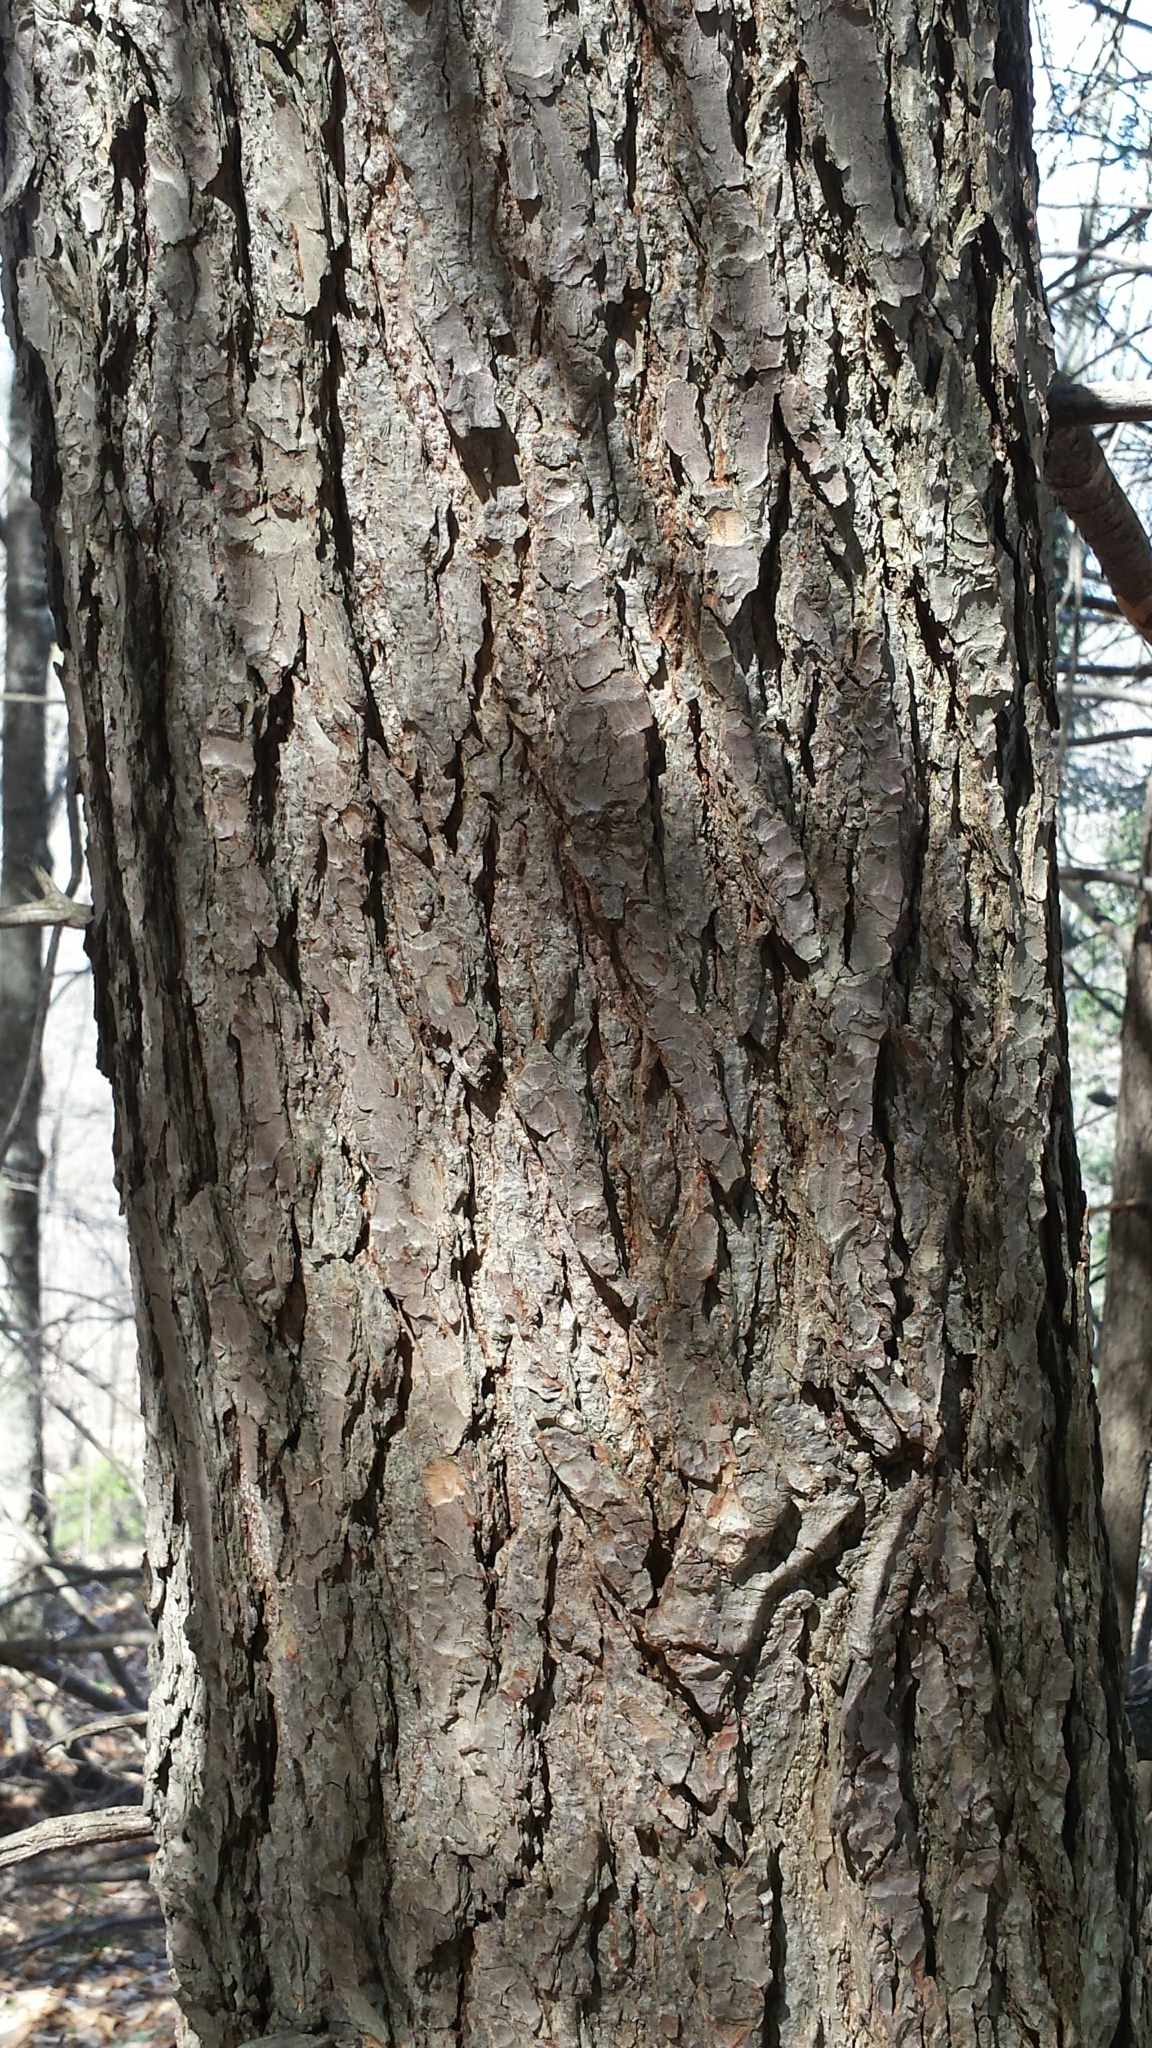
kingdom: Plantae
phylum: Tracheophyta
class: Pinopsida
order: Pinales
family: Pinaceae
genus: Tsuga
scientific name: Tsuga canadensis
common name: Eastern hemlock
